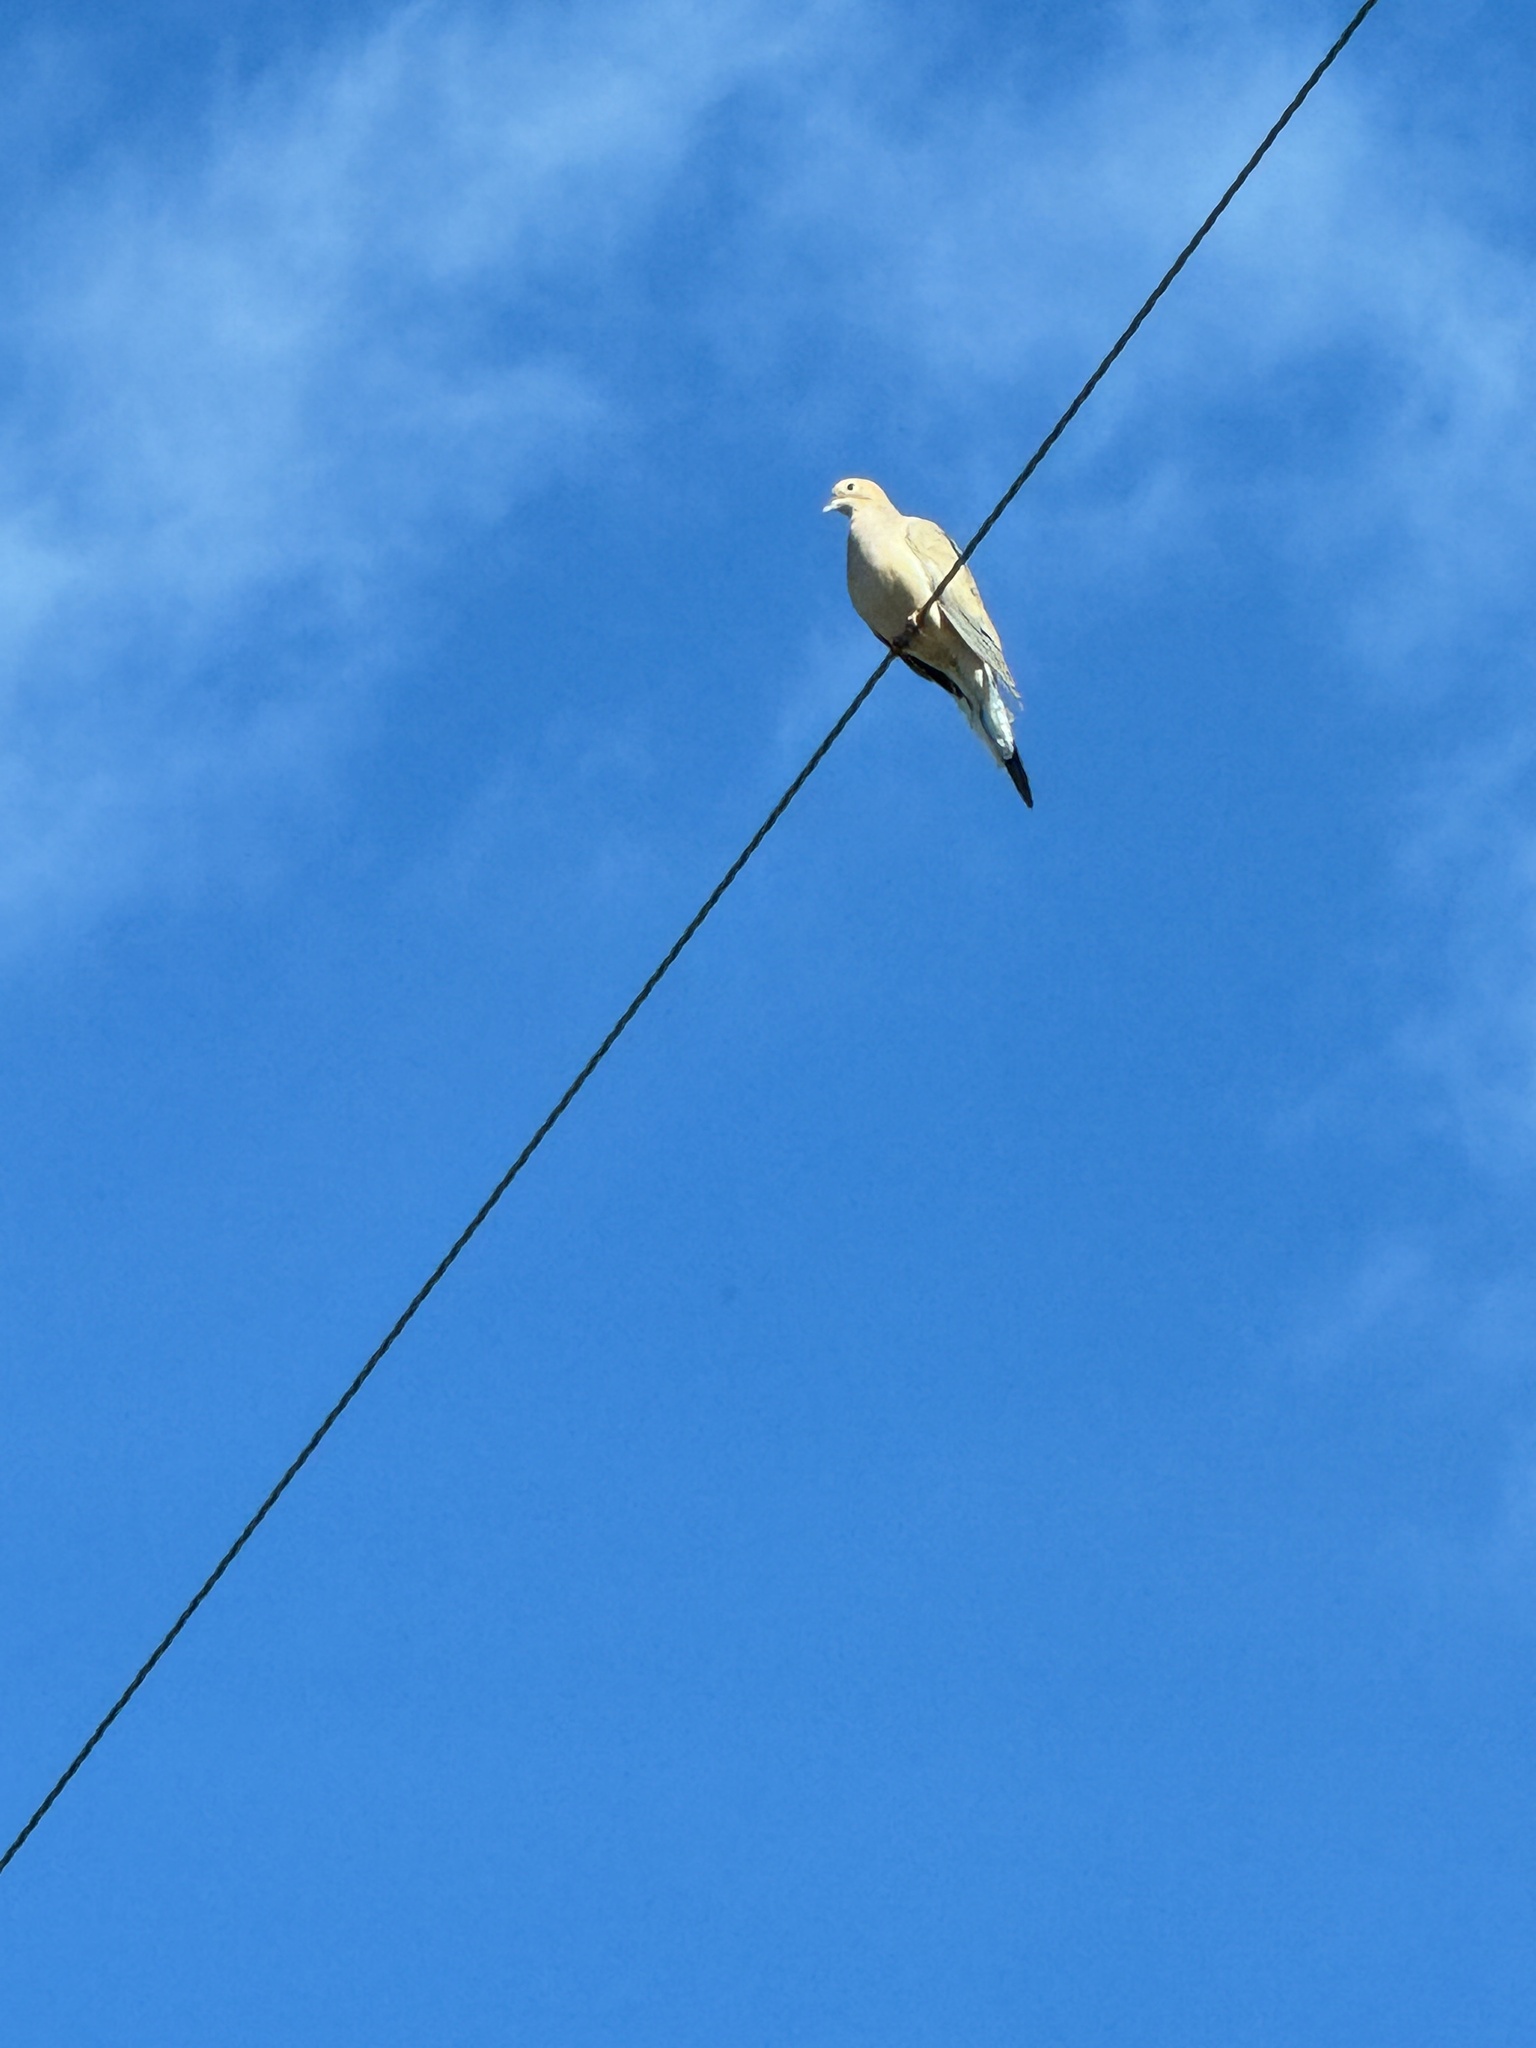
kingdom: Animalia
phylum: Chordata
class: Aves
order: Columbiformes
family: Columbidae
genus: Zenaida
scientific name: Zenaida macroura
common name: Mourning dove
